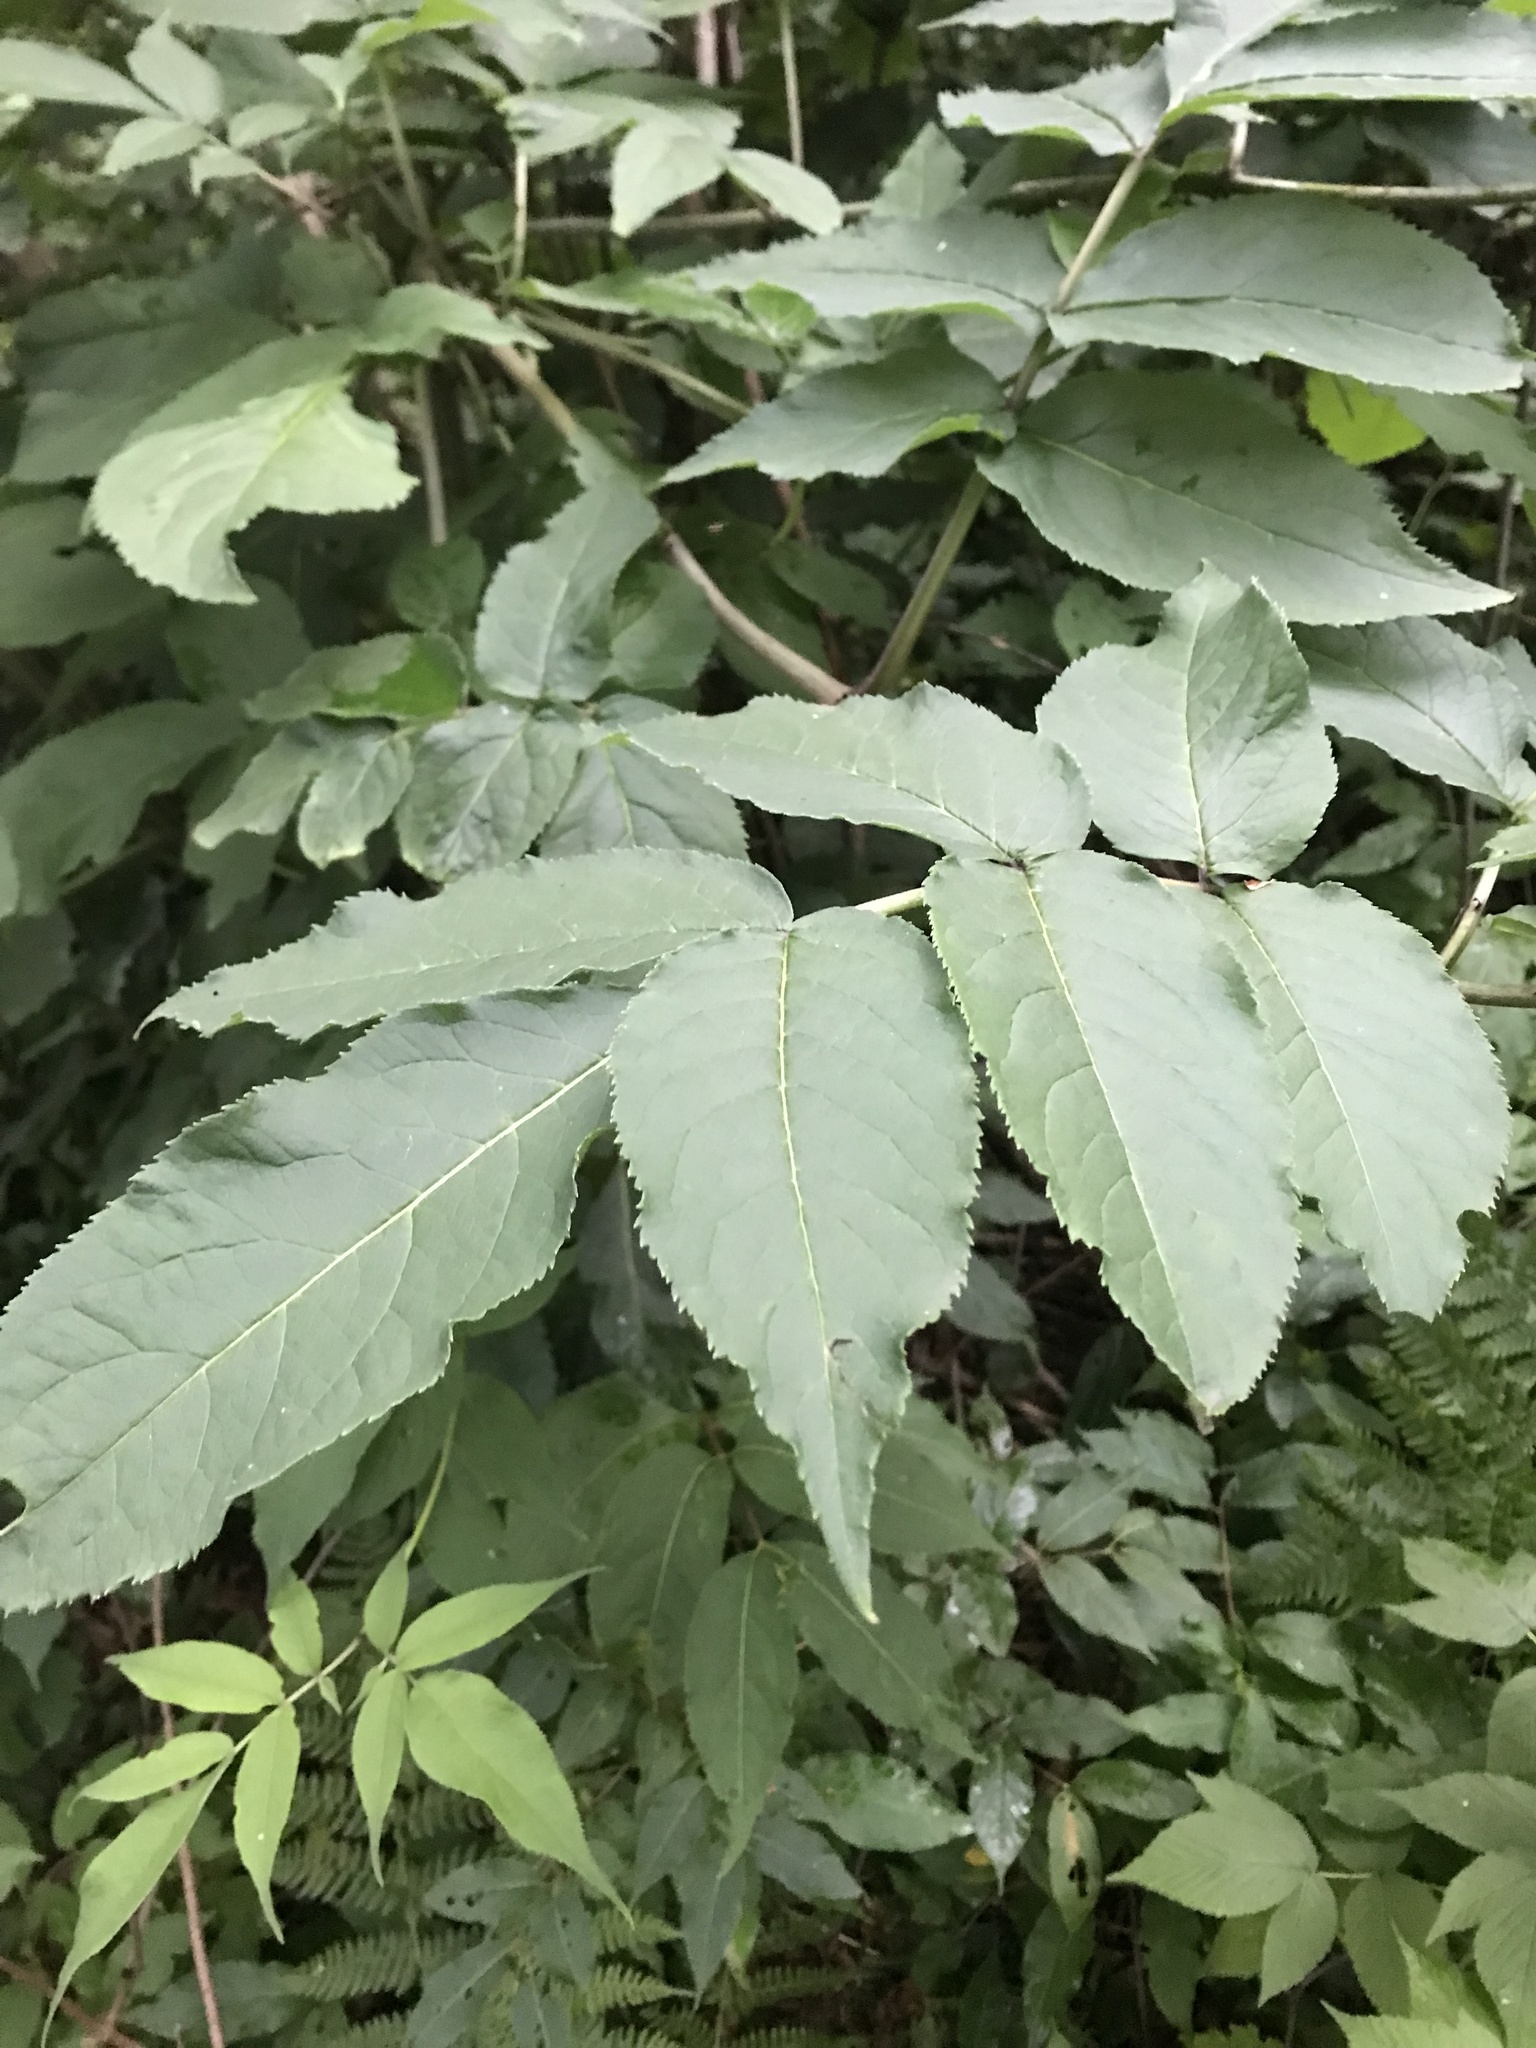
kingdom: Plantae
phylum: Tracheophyta
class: Magnoliopsida
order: Dipsacales
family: Viburnaceae
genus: Sambucus
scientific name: Sambucus racemosa
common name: Red-berried elder
